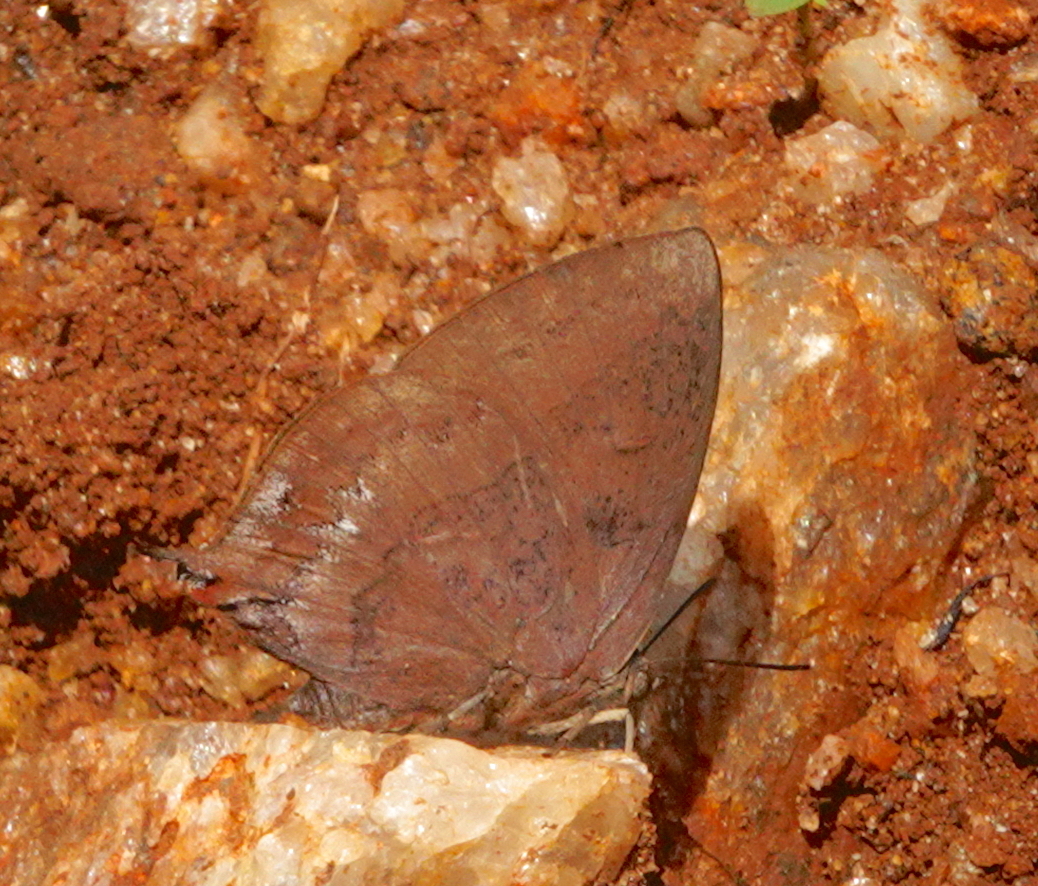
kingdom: Animalia
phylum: Arthropoda
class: Insecta
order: Lepidoptera
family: Lycaenidae
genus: Amblypodia
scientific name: Amblypodia anita
